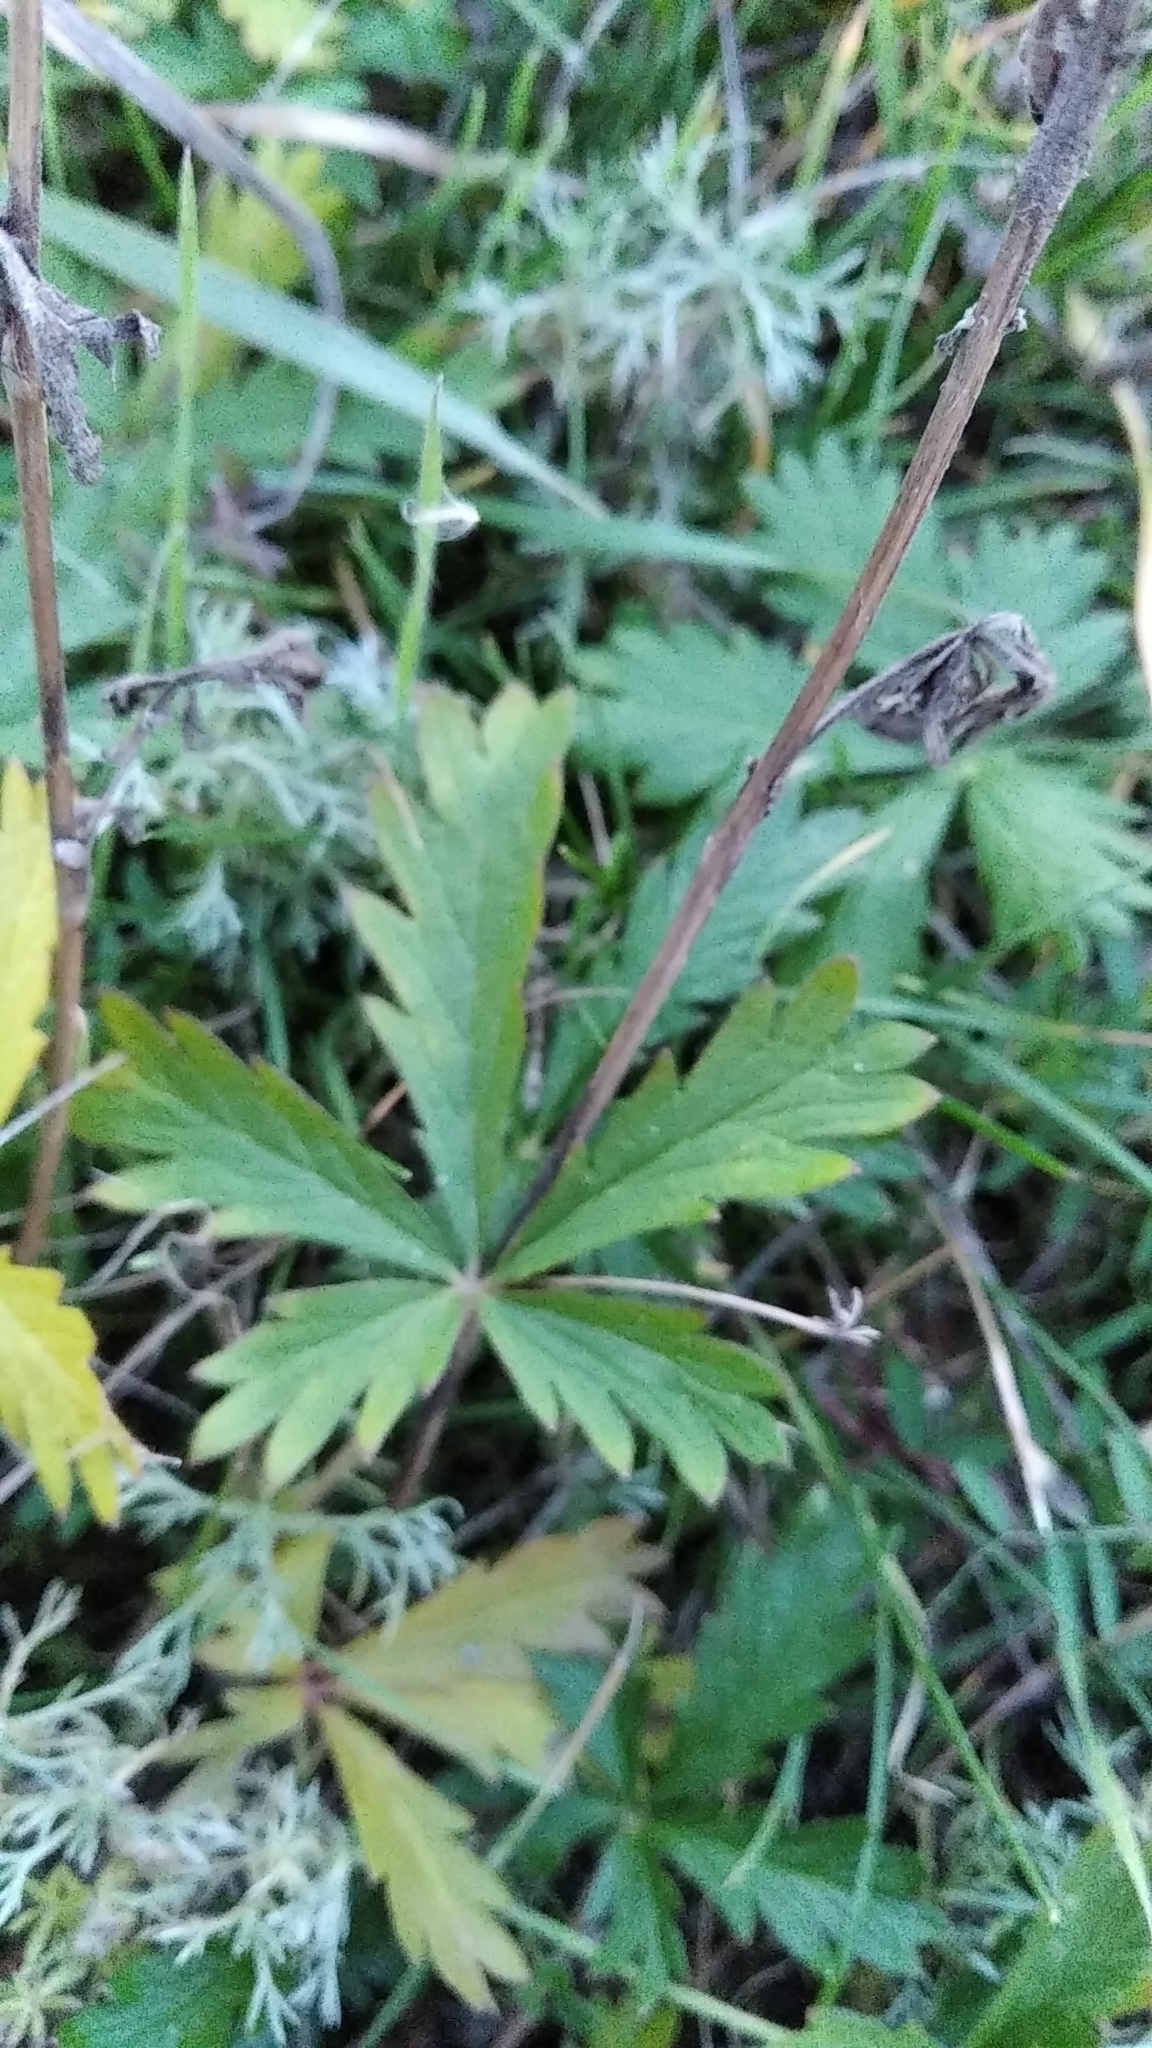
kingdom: Plantae
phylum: Tracheophyta
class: Magnoliopsida
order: Rosales
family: Rosaceae
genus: Potentilla
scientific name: Potentilla recta
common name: Sulphur cinquefoil
